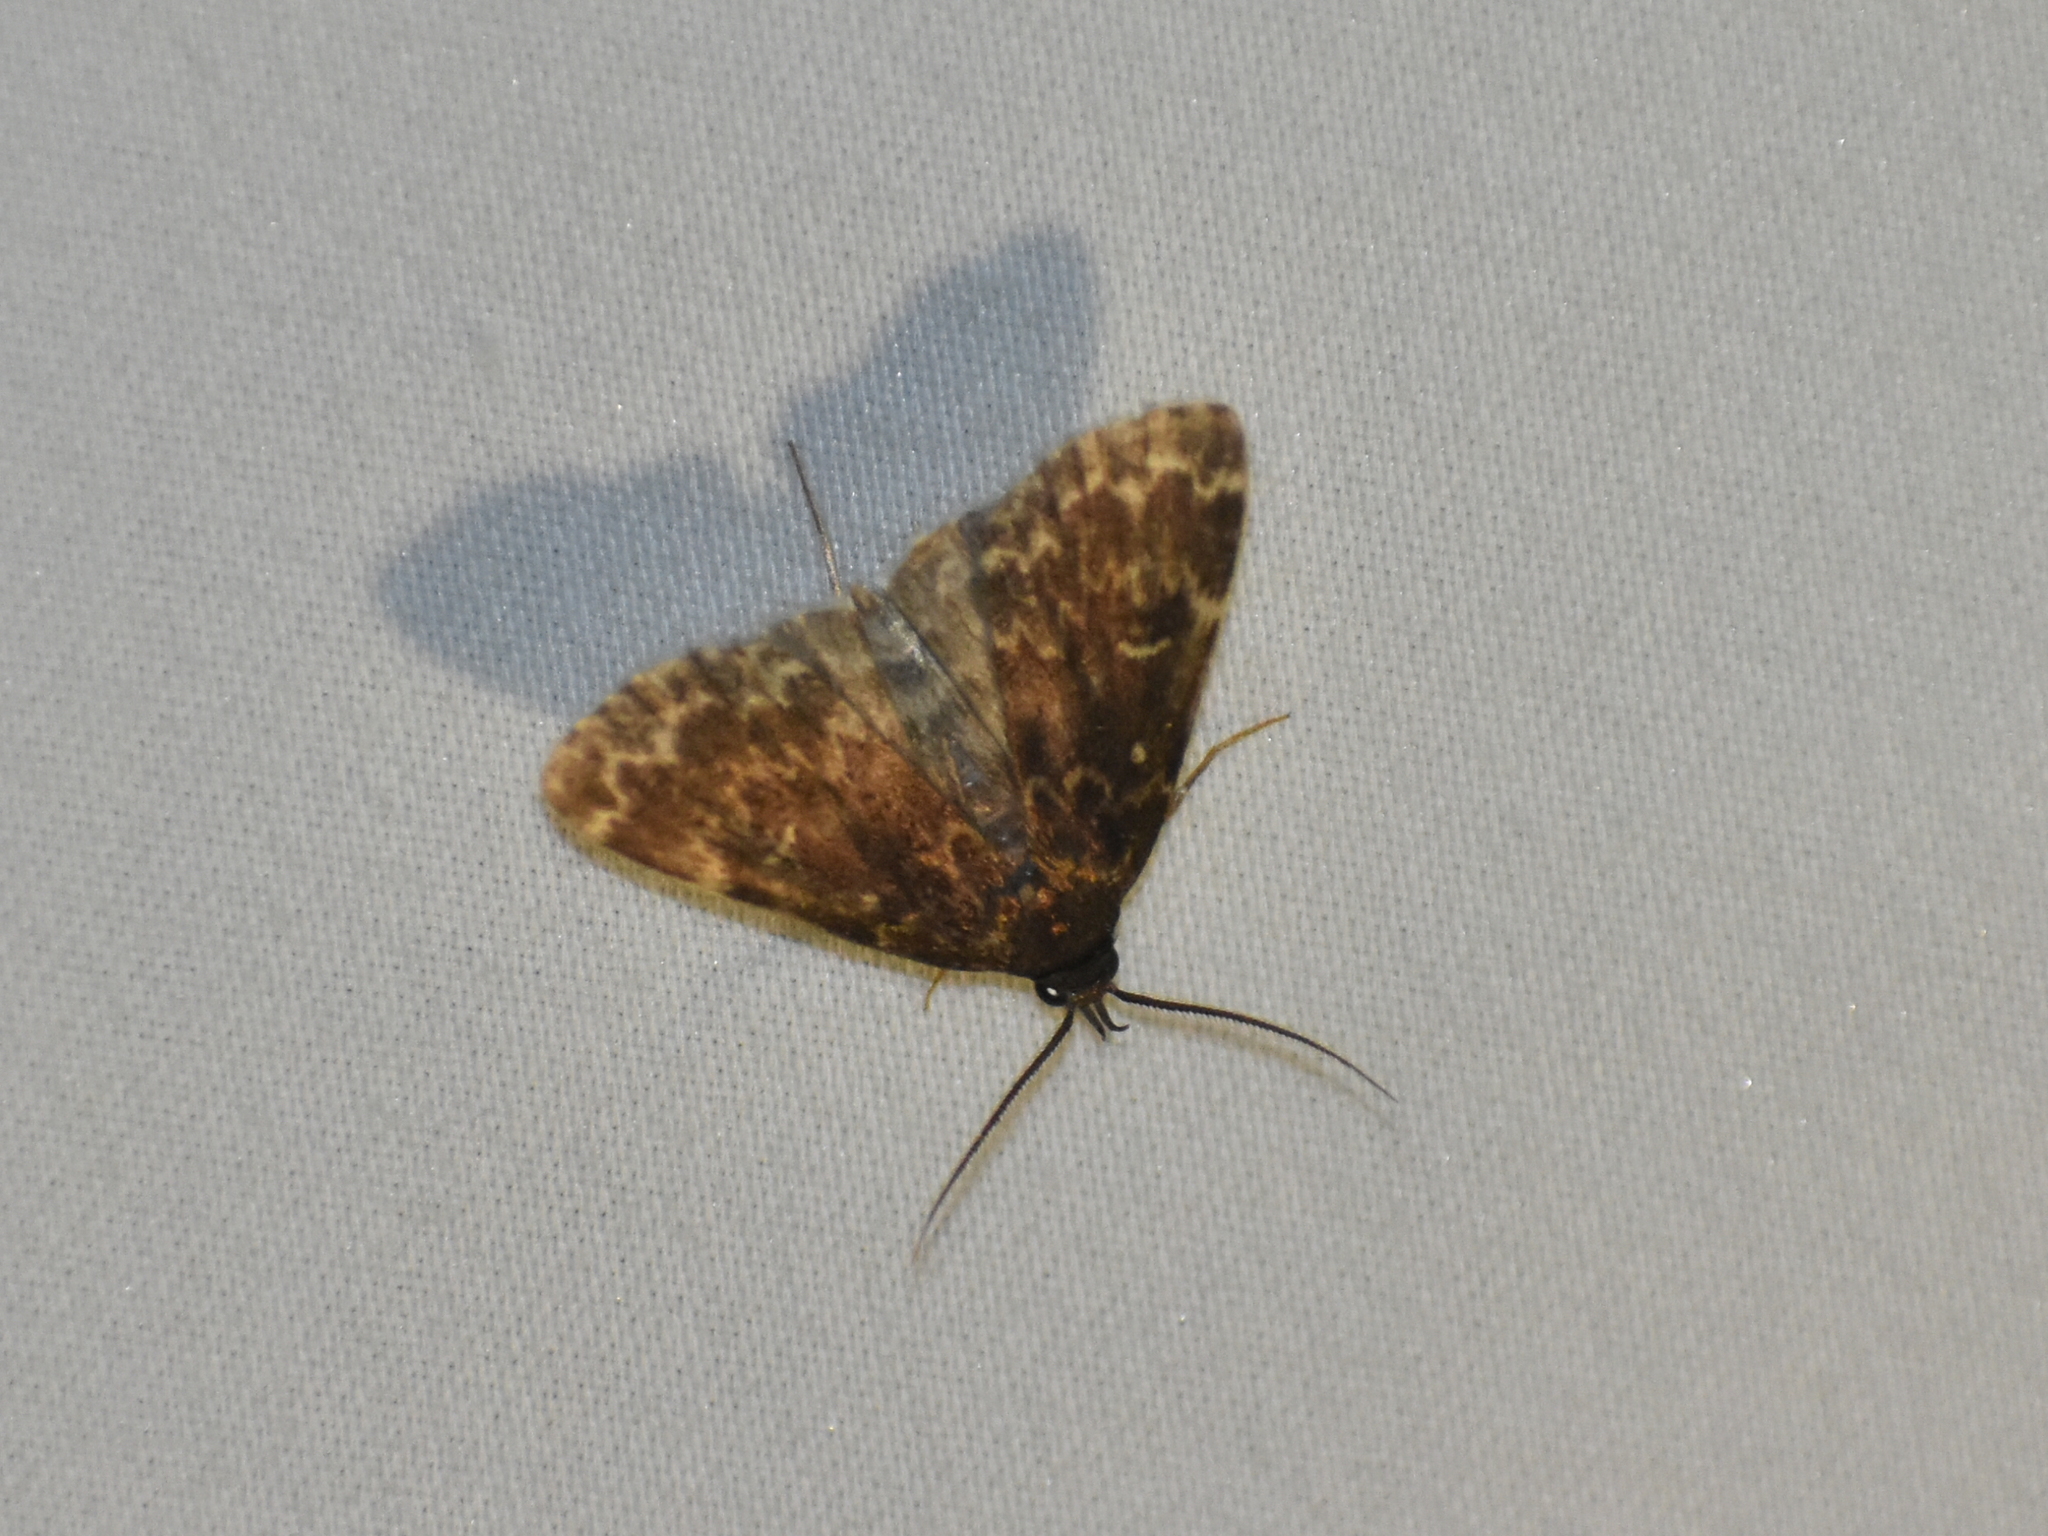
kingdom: Animalia
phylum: Arthropoda
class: Insecta
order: Lepidoptera
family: Erebidae
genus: Idia
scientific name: Idia lubricalis
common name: Twin-striped tabby
